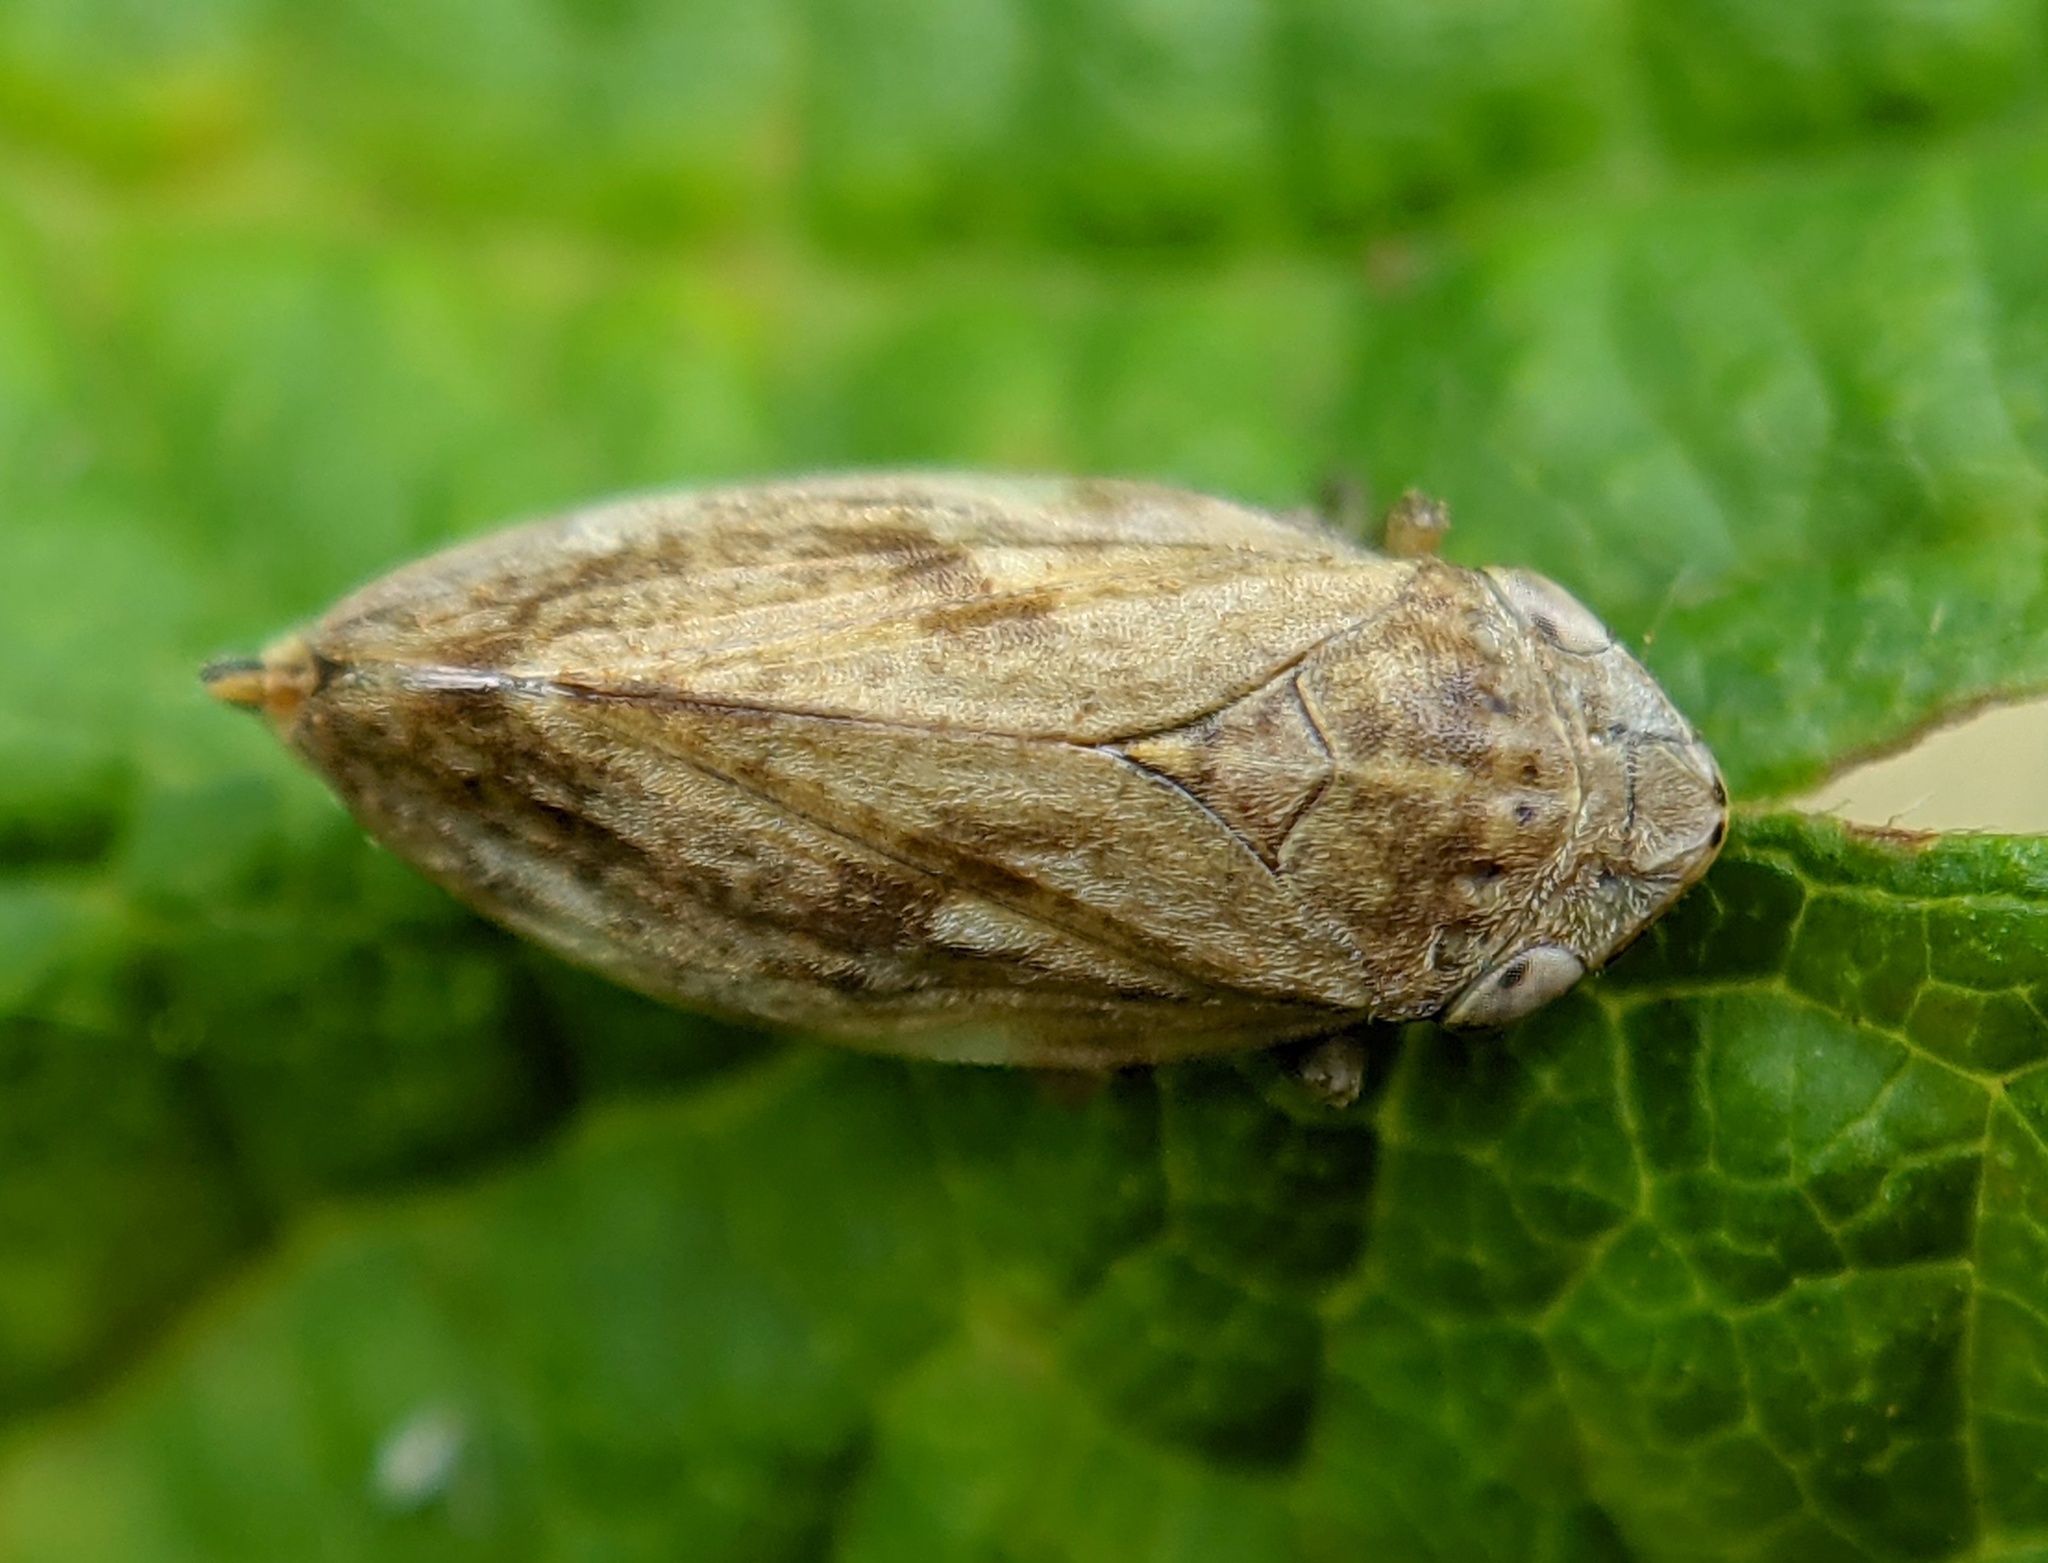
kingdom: Animalia
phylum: Arthropoda
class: Insecta
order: Hemiptera
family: Aphrophoridae
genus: Philaenus
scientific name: Philaenus spumarius
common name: Meadow spittlebug
